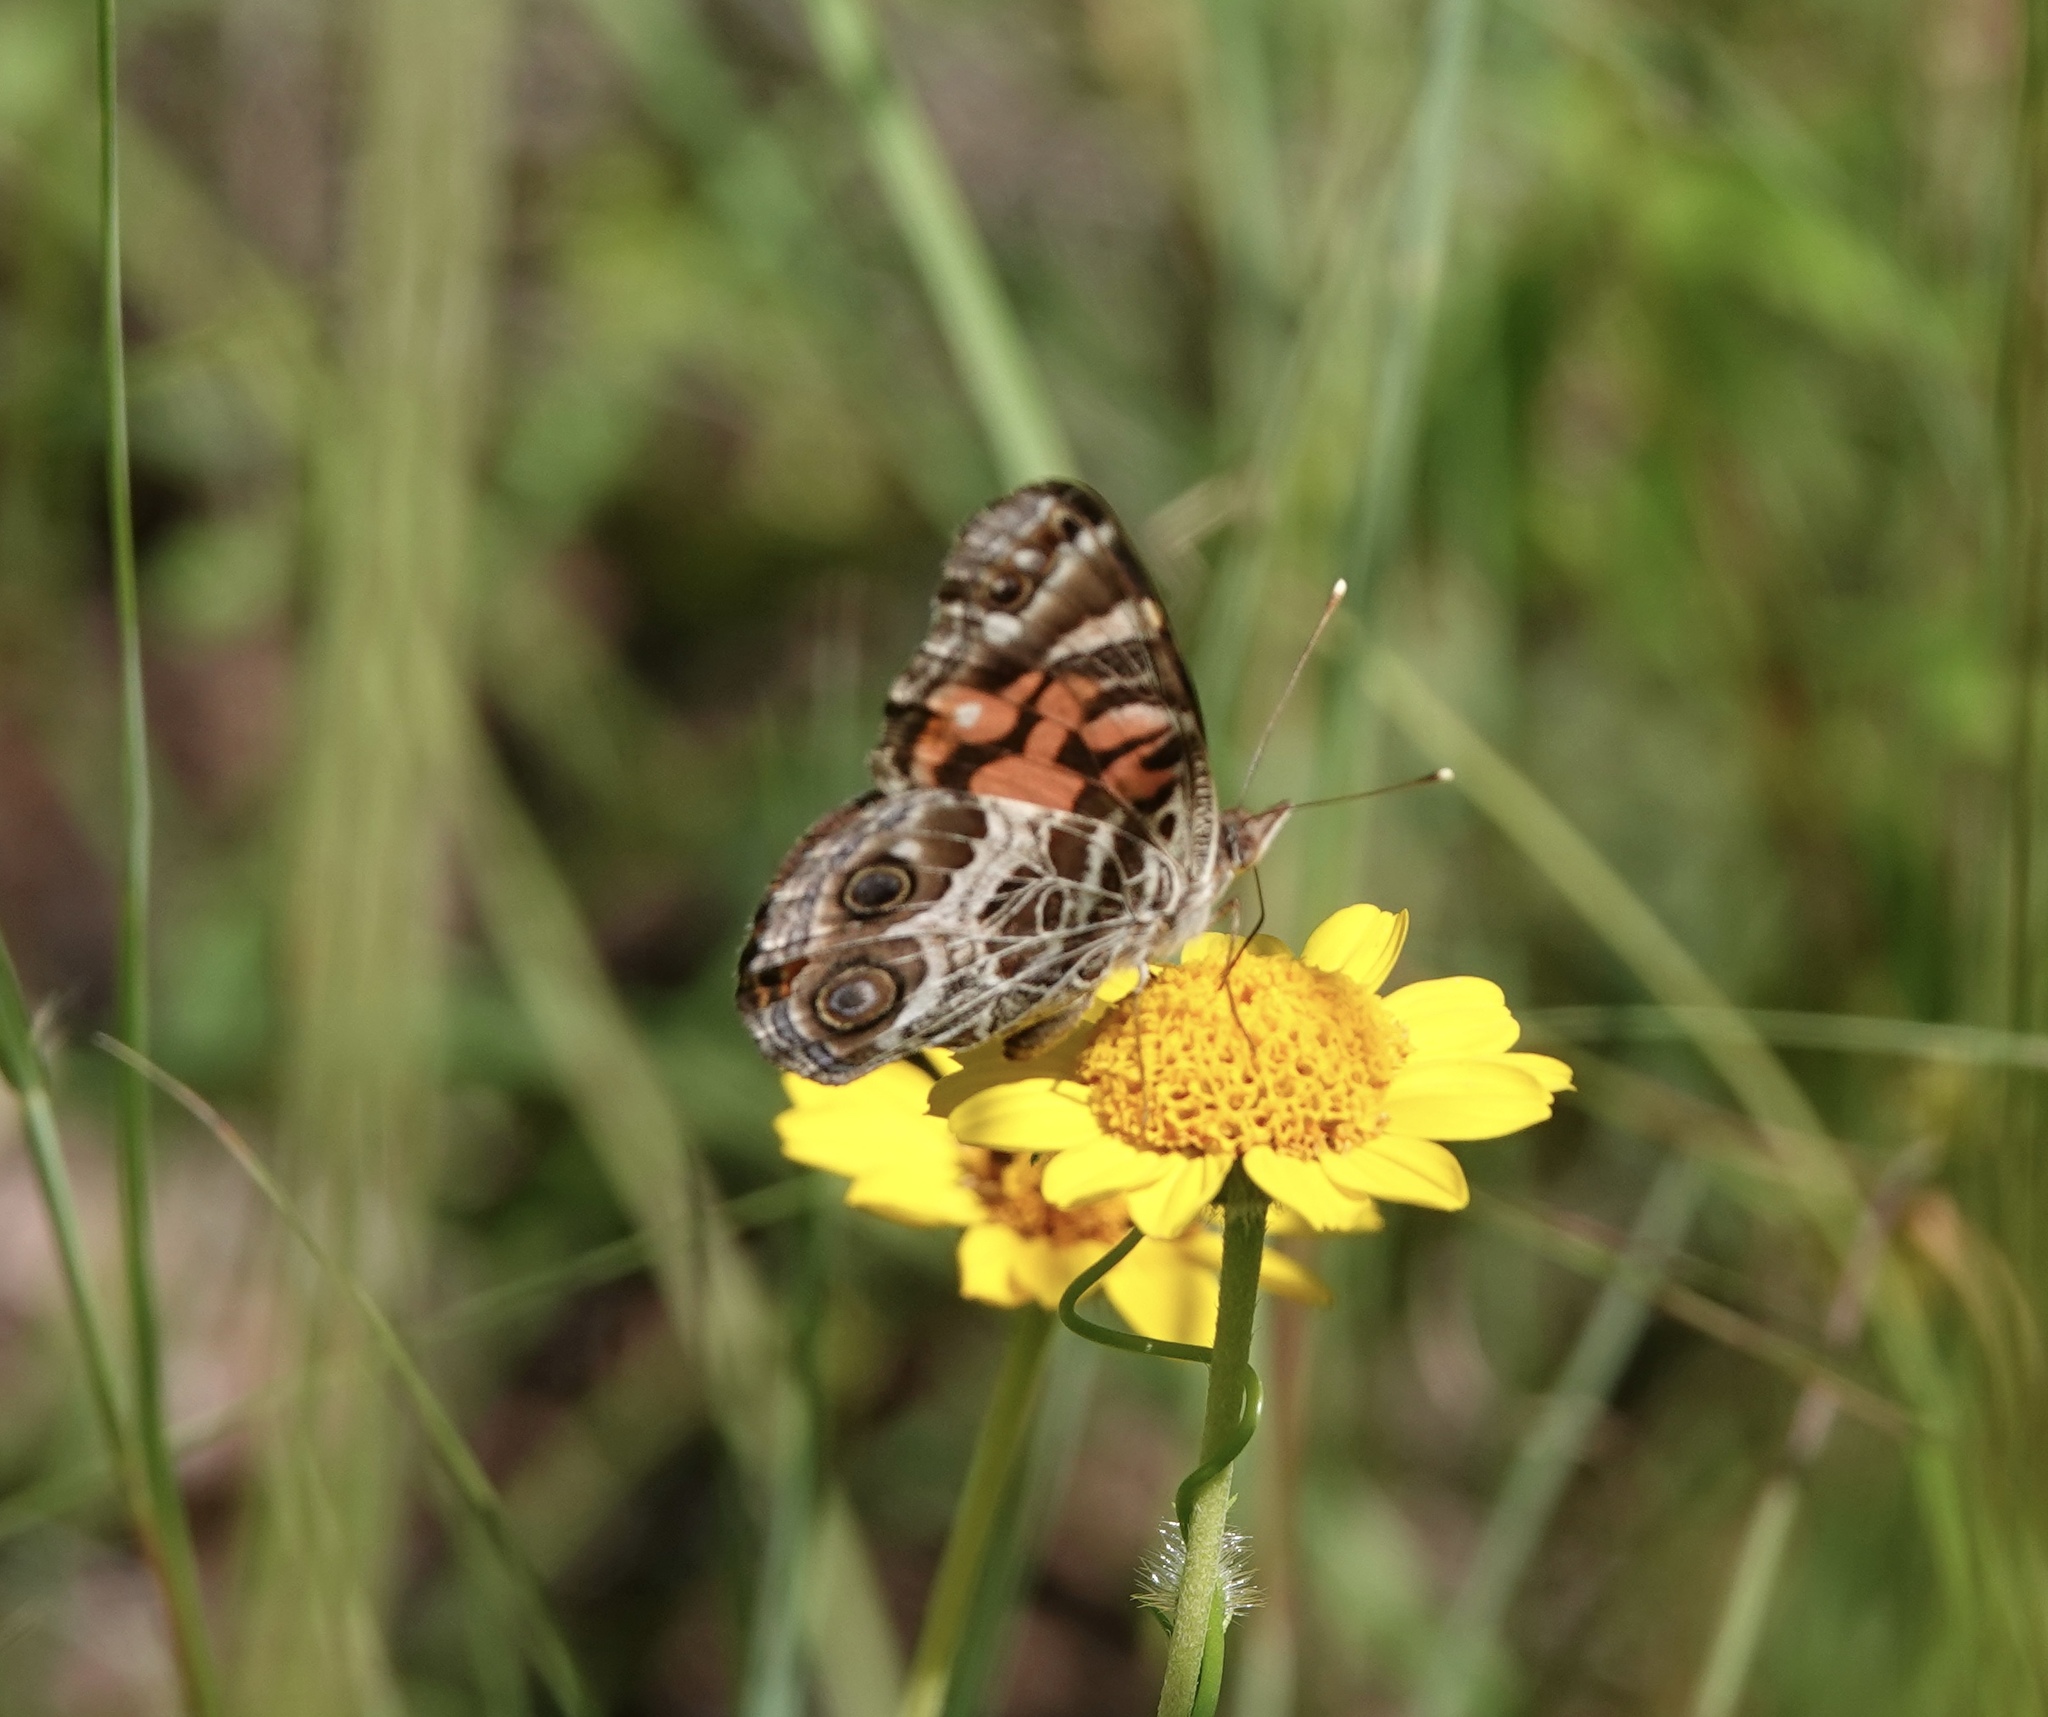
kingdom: Animalia
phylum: Arthropoda
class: Insecta
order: Lepidoptera
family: Nymphalidae
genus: Vanessa
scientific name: Vanessa virginiensis
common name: American lady
